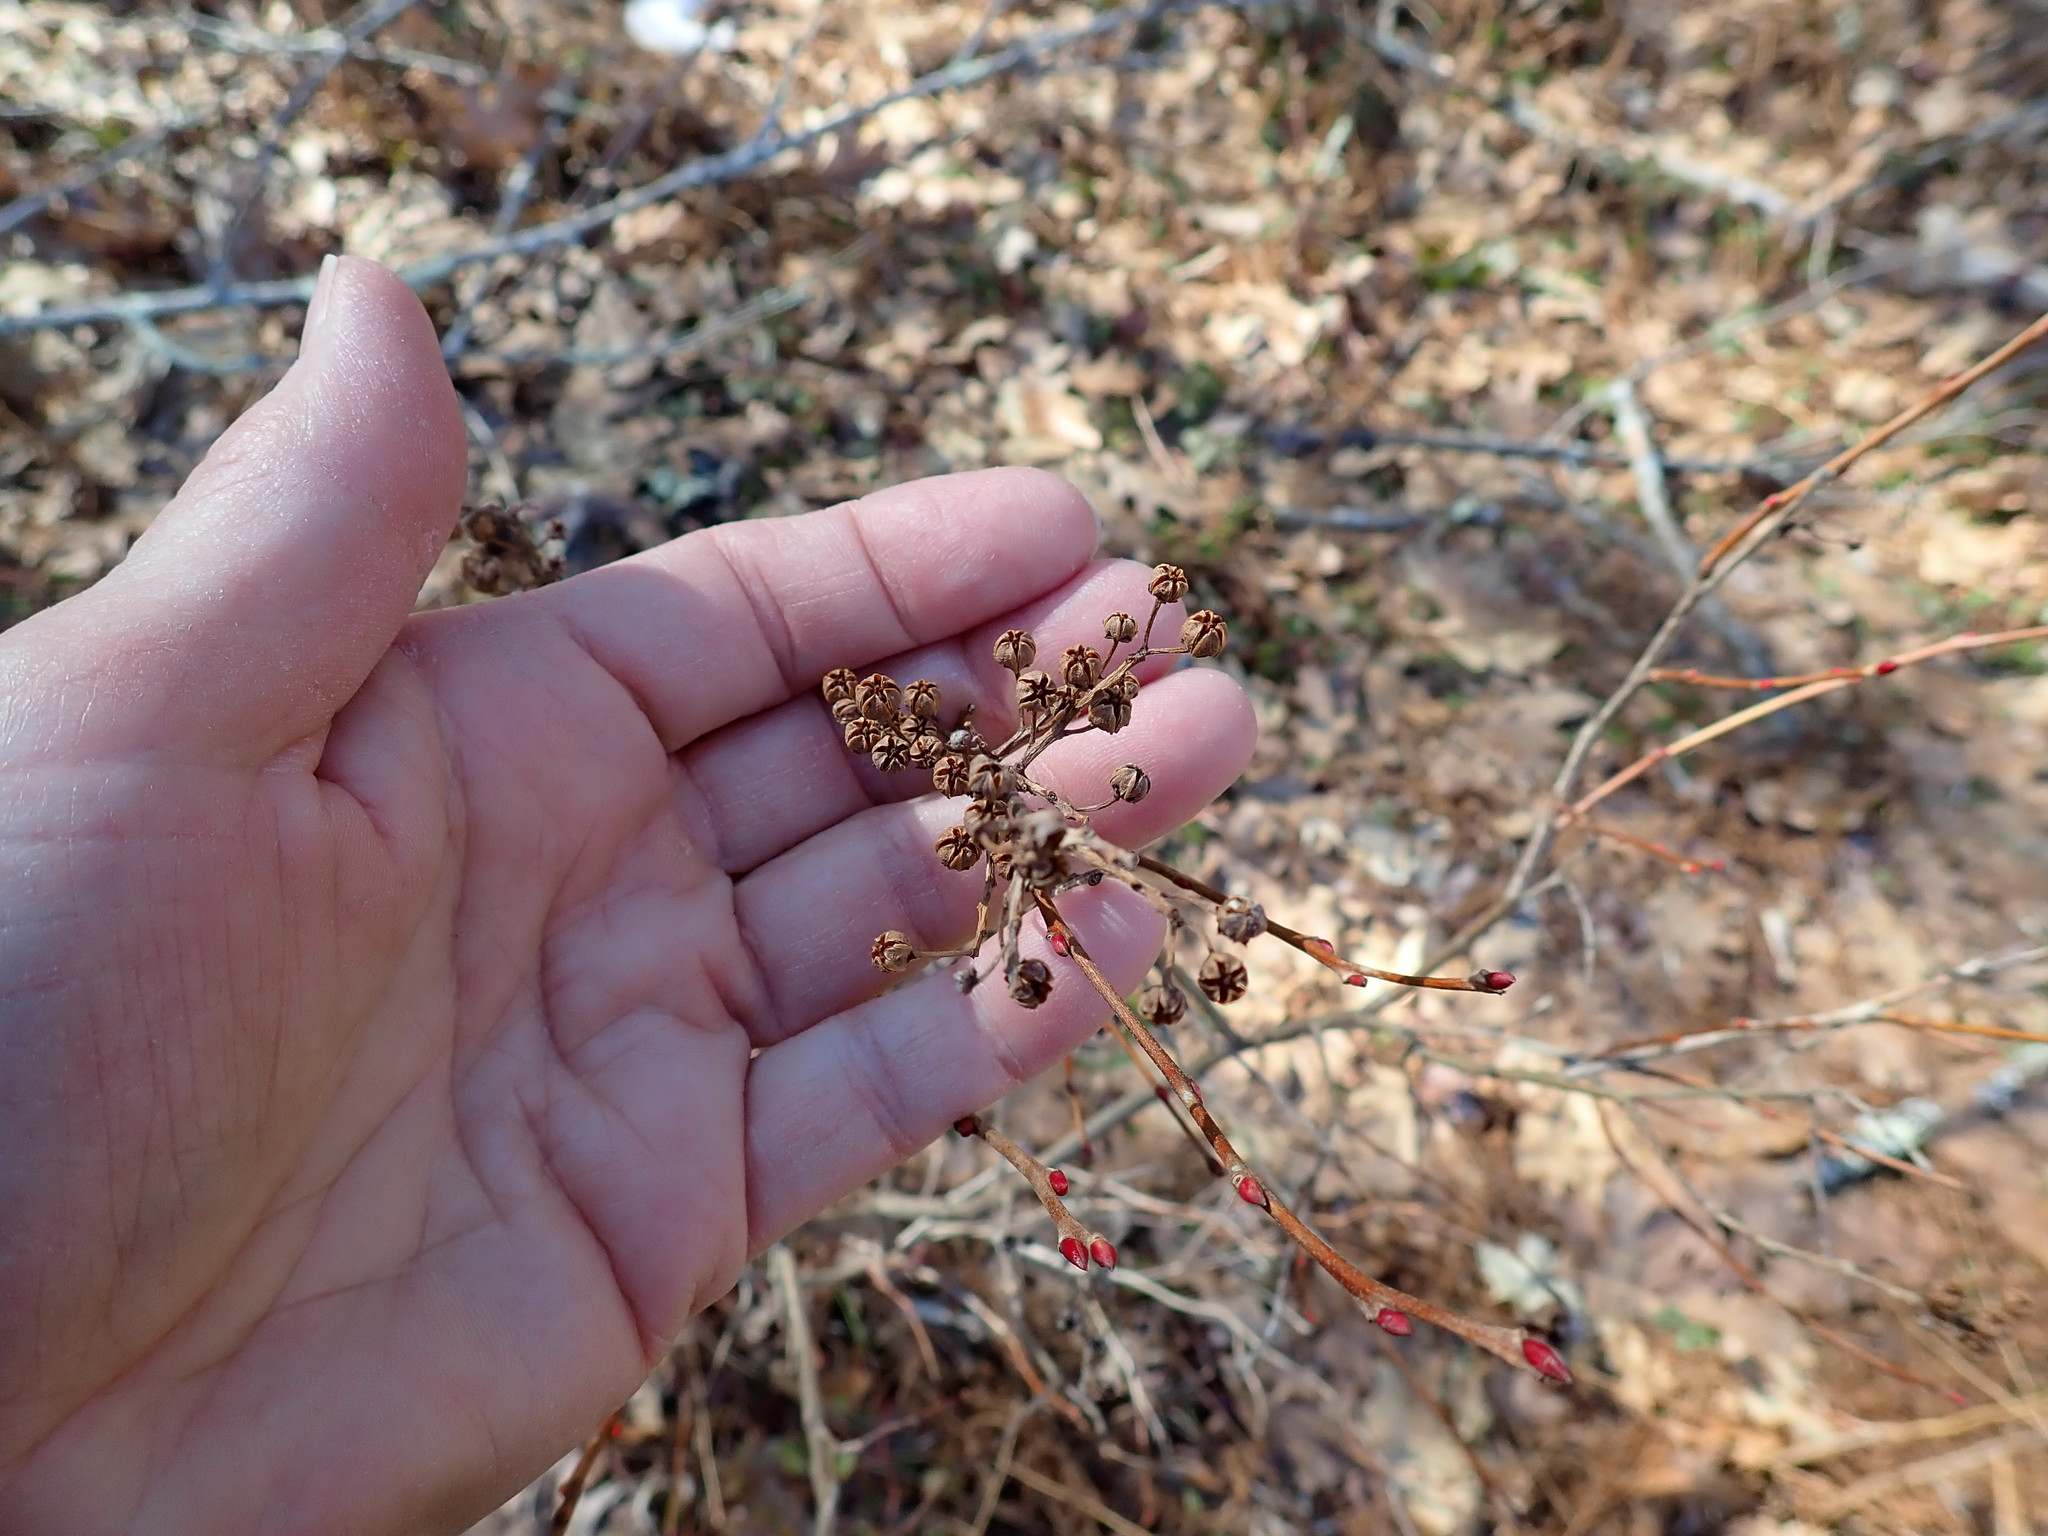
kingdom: Plantae
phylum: Tracheophyta
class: Magnoliopsida
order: Ericales
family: Ericaceae
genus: Lyonia
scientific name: Lyonia ligustrina
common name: Maleberry
